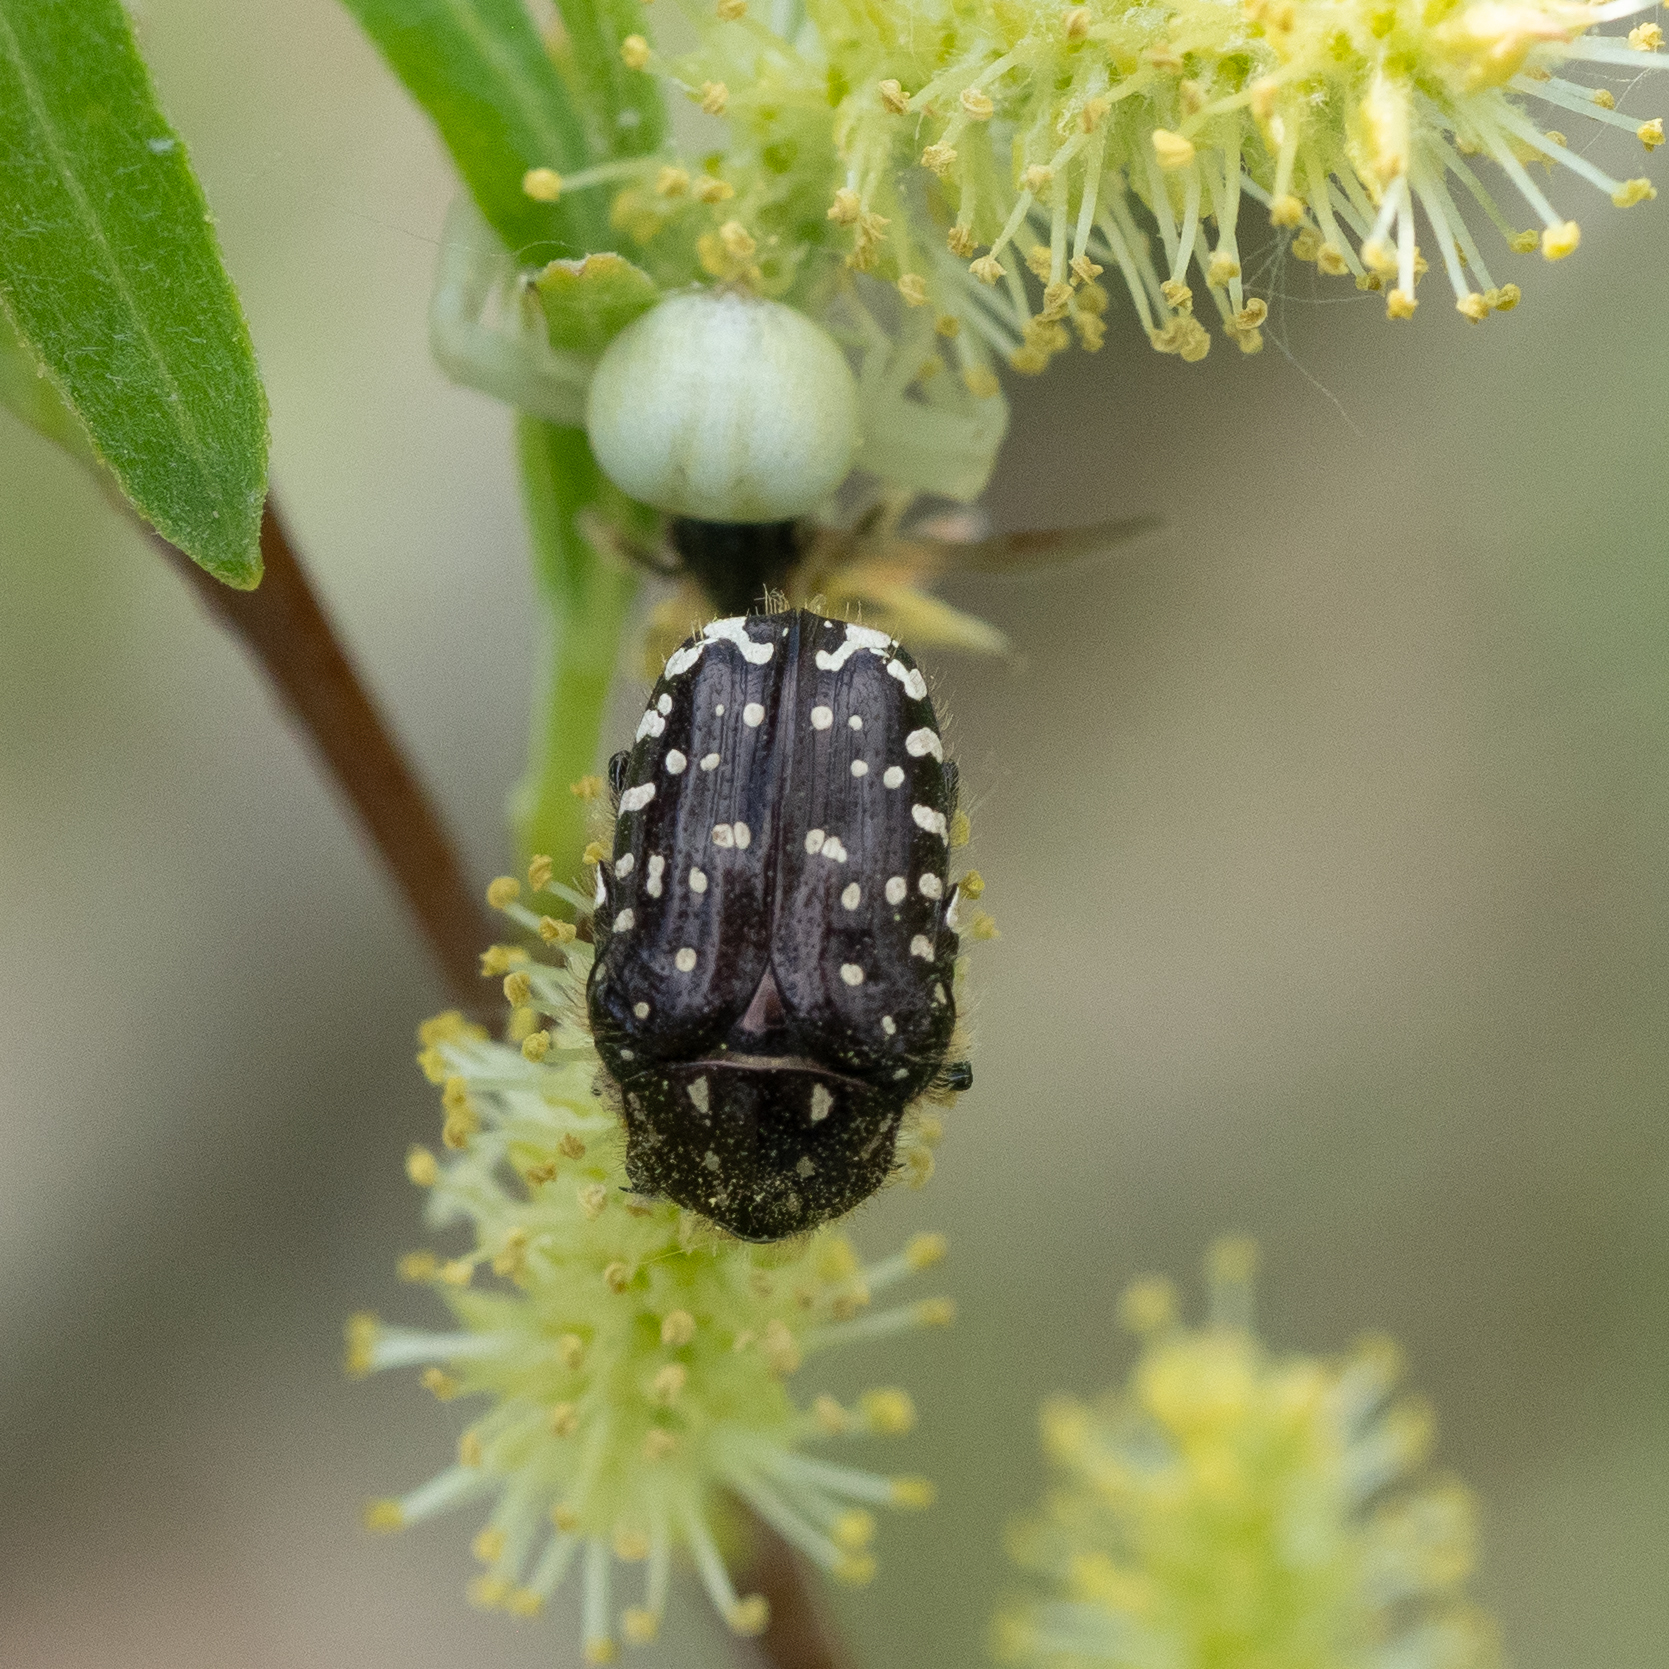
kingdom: Animalia
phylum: Arthropoda
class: Insecta
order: Coleoptera
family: Scarabaeidae
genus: Oxythyrea
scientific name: Oxythyrea funesta
